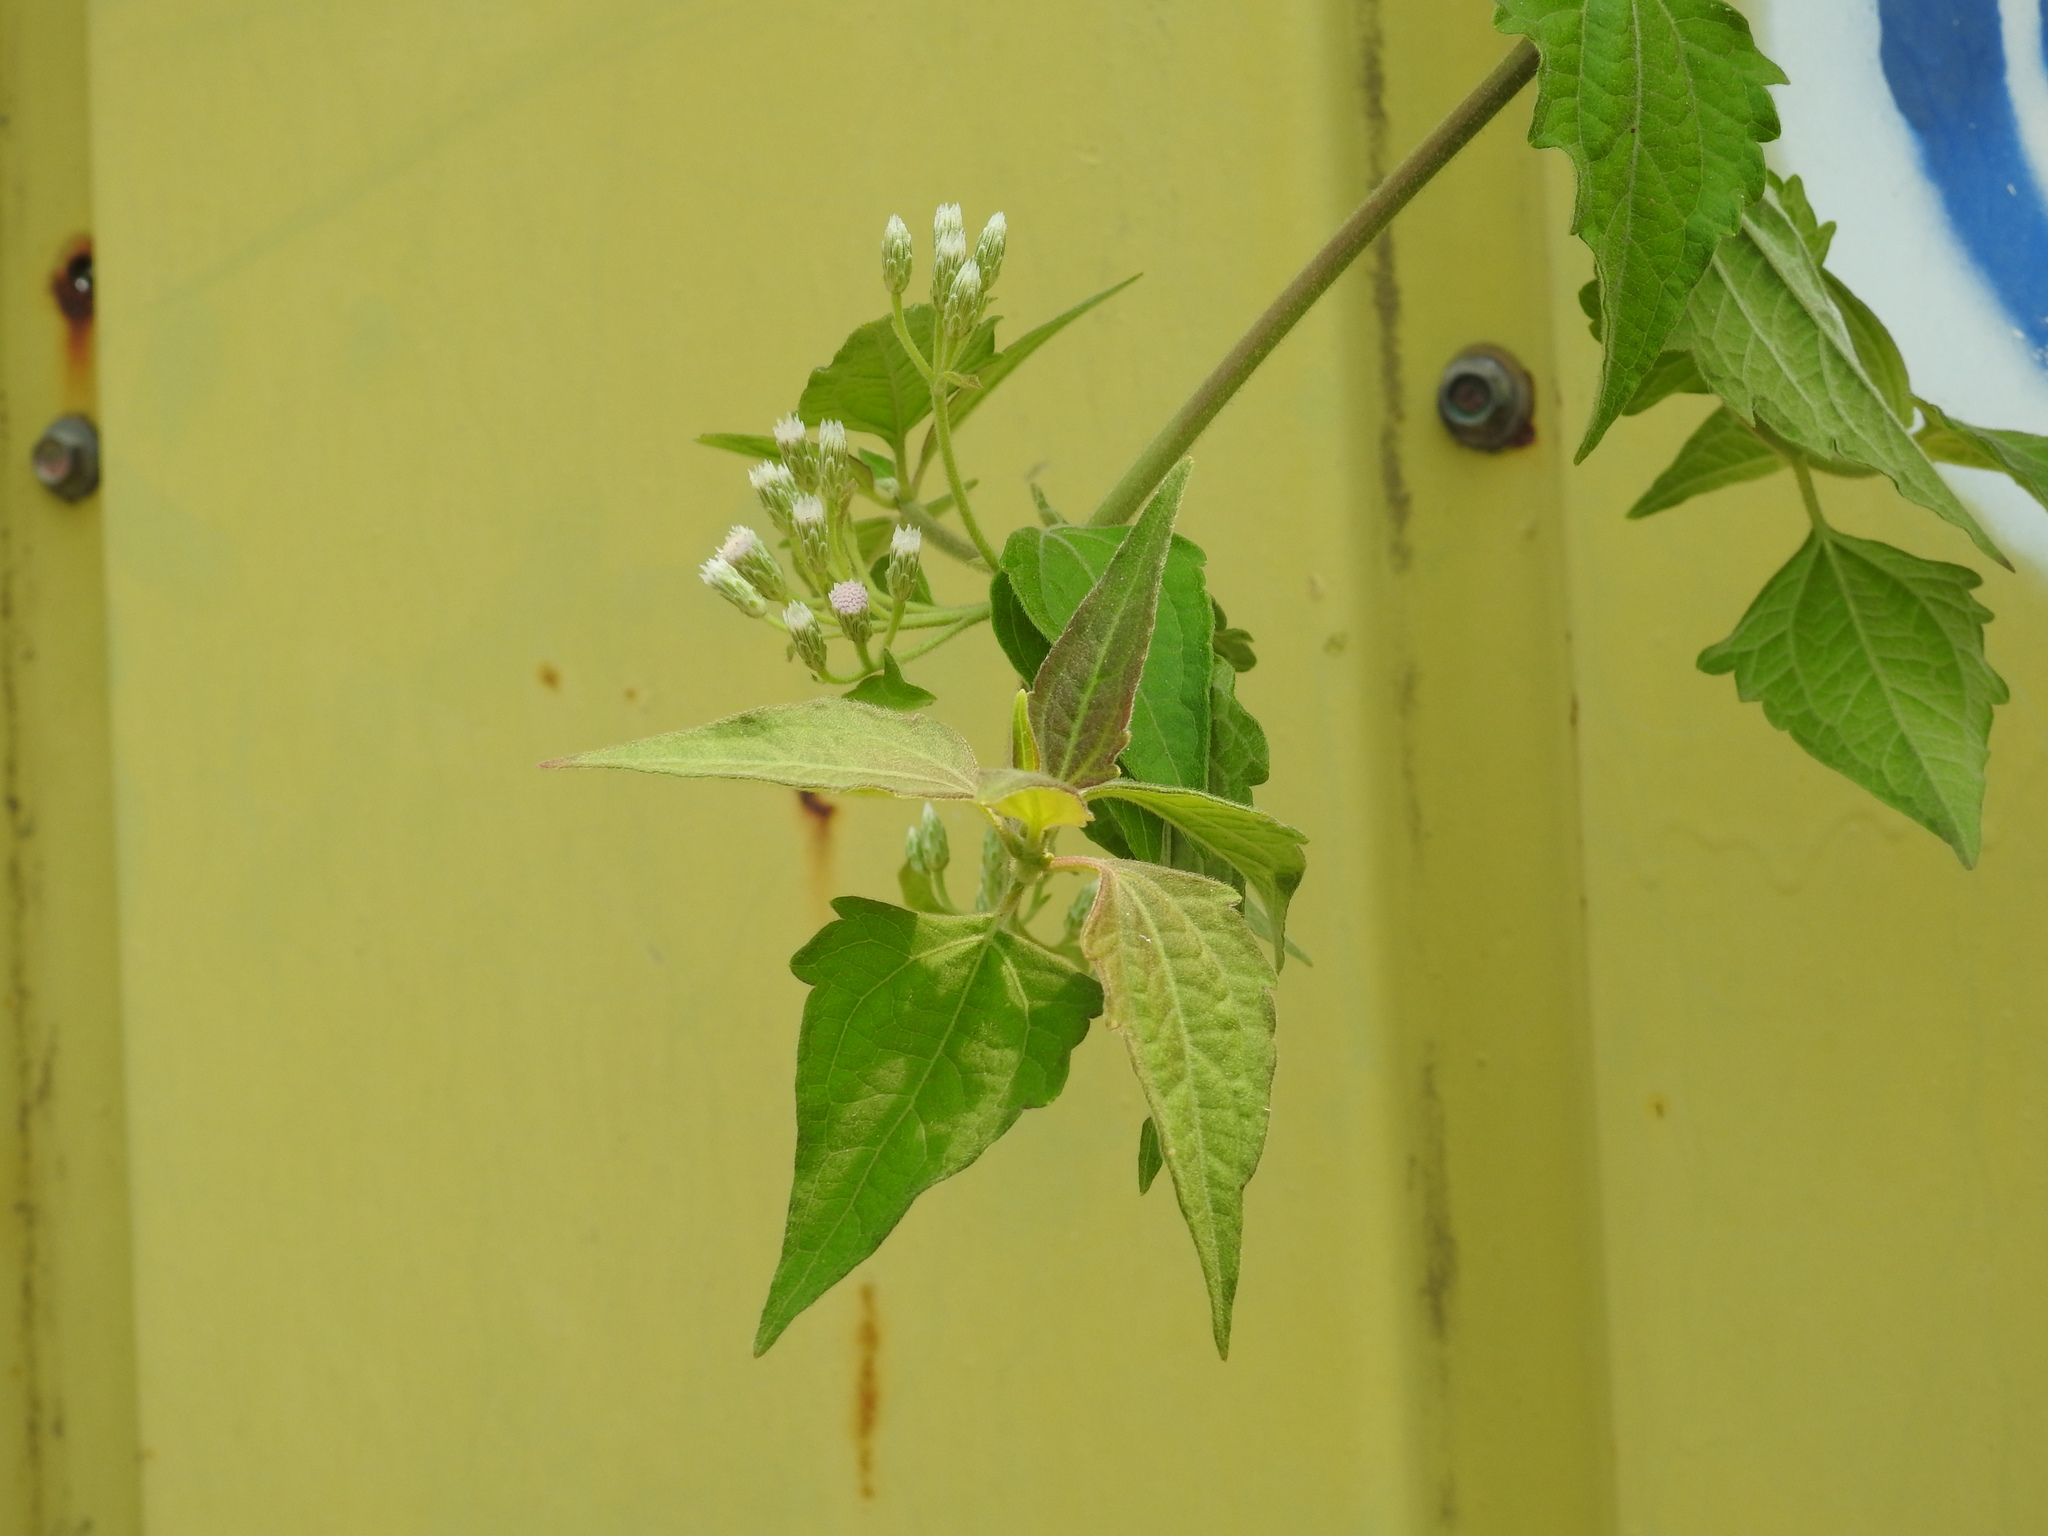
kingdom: Plantae
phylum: Tracheophyta
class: Magnoliopsida
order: Asterales
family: Asteraceae
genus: Mikania
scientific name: Mikania micrantha
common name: Mile-a-minute
